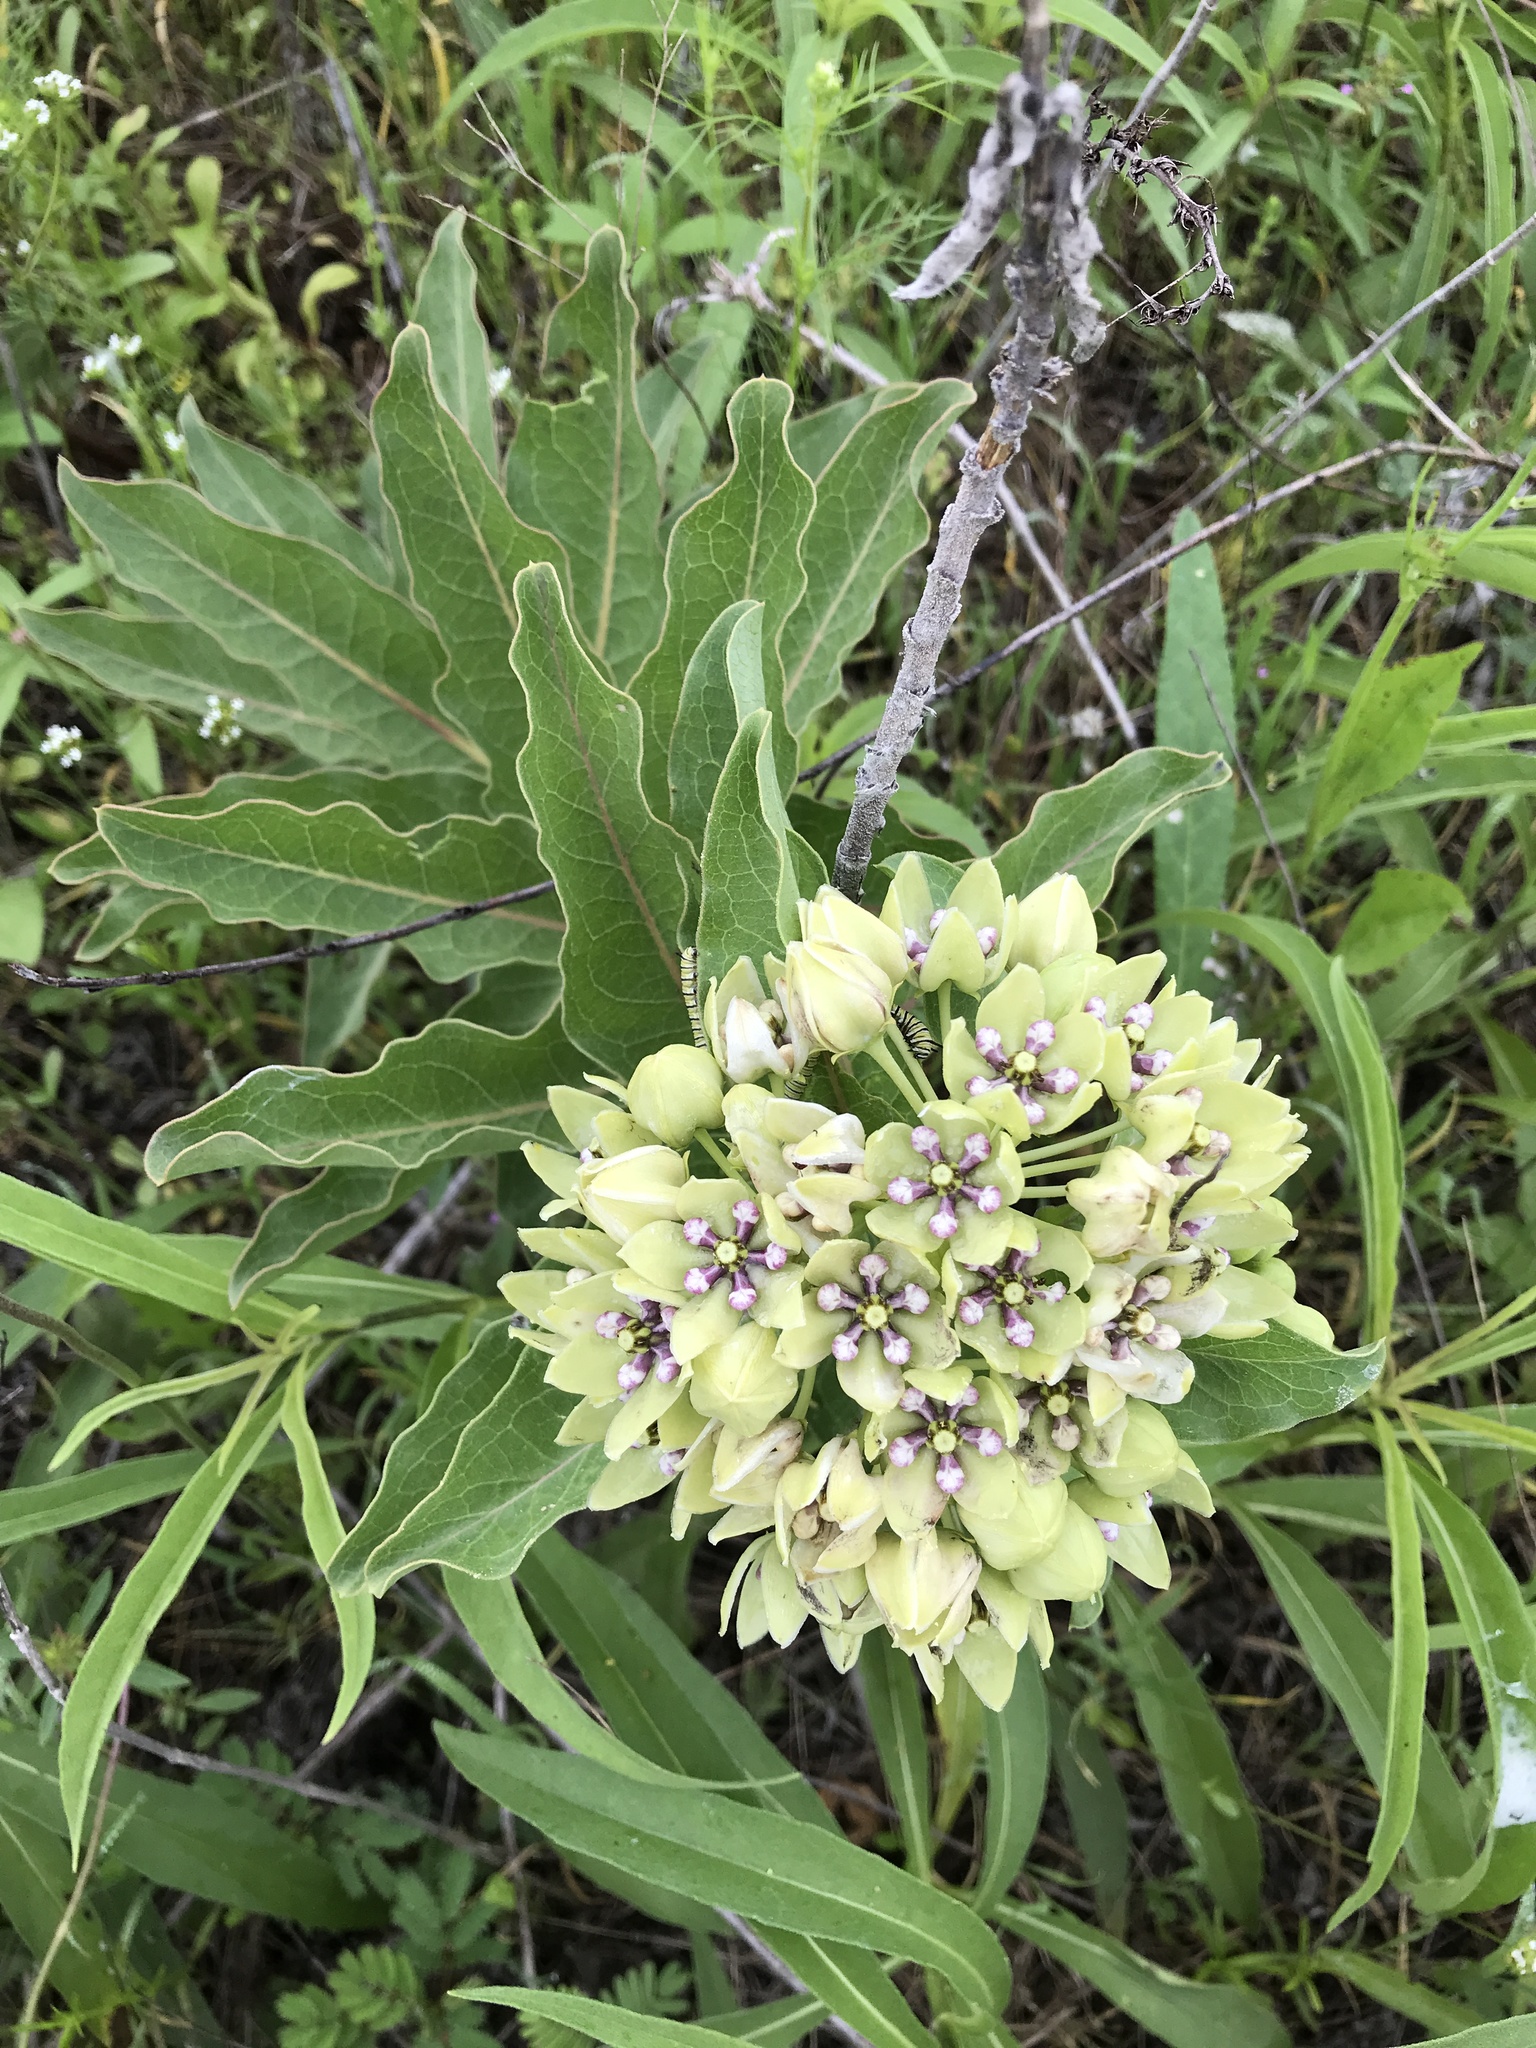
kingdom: Plantae
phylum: Tracheophyta
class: Magnoliopsida
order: Gentianales
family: Apocynaceae
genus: Asclepias
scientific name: Asclepias viridis
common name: Antelope-horns
